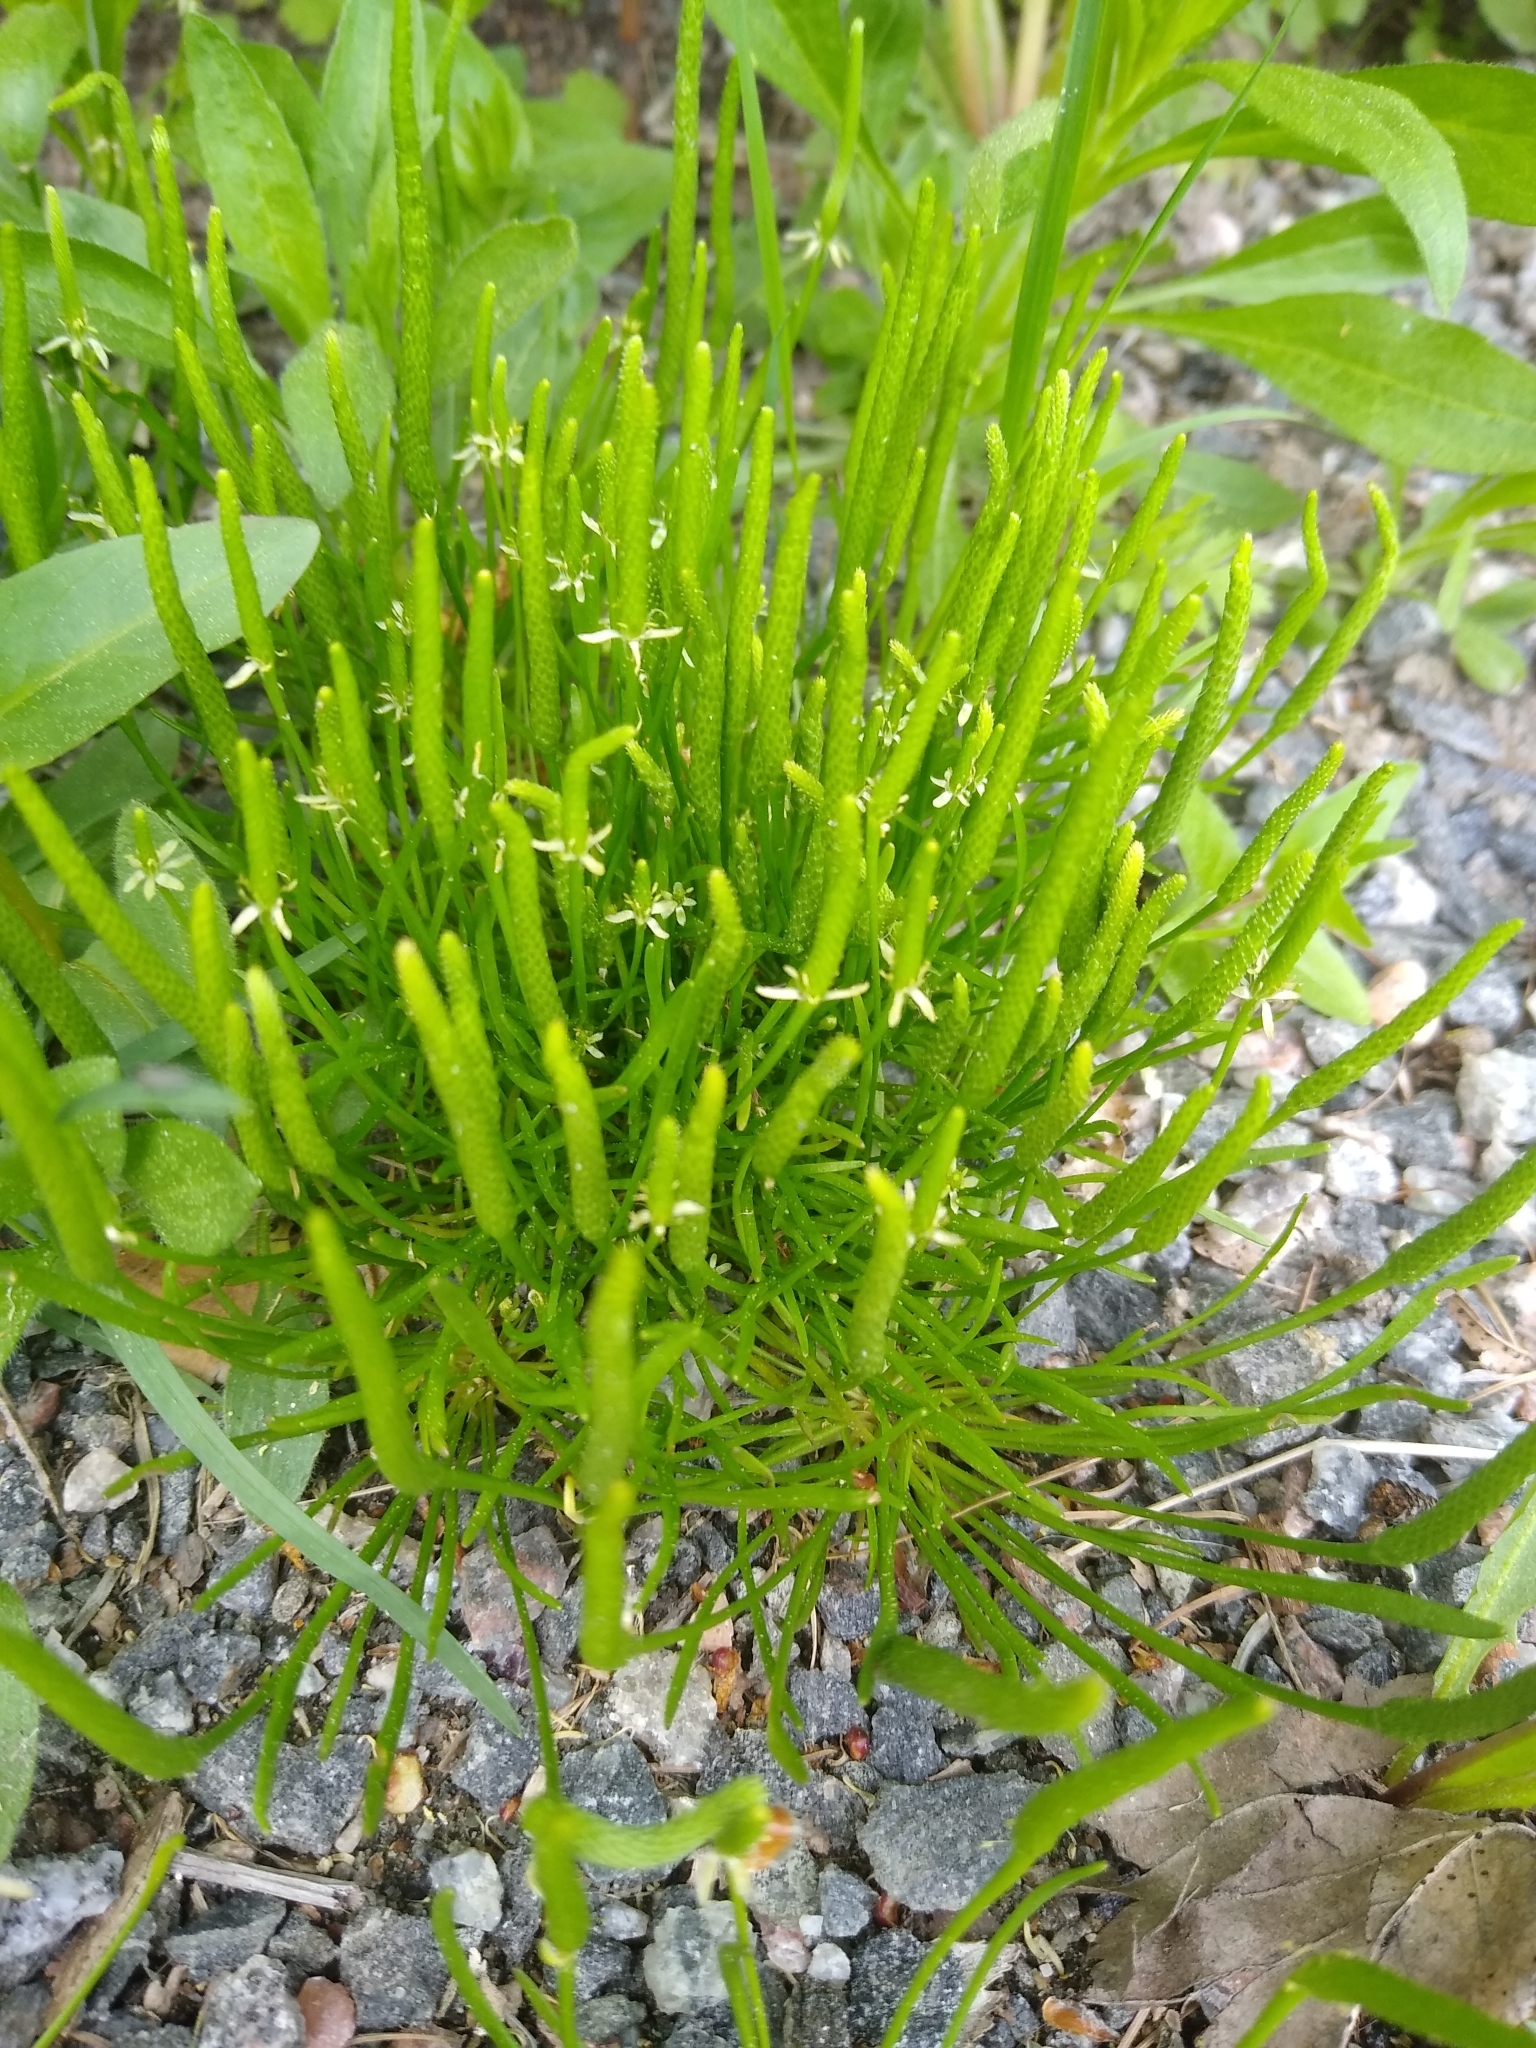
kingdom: Plantae
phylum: Tracheophyta
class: Magnoliopsida
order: Ranunculales
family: Ranunculaceae
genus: Myosurus
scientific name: Myosurus minimus
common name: Mousetail
